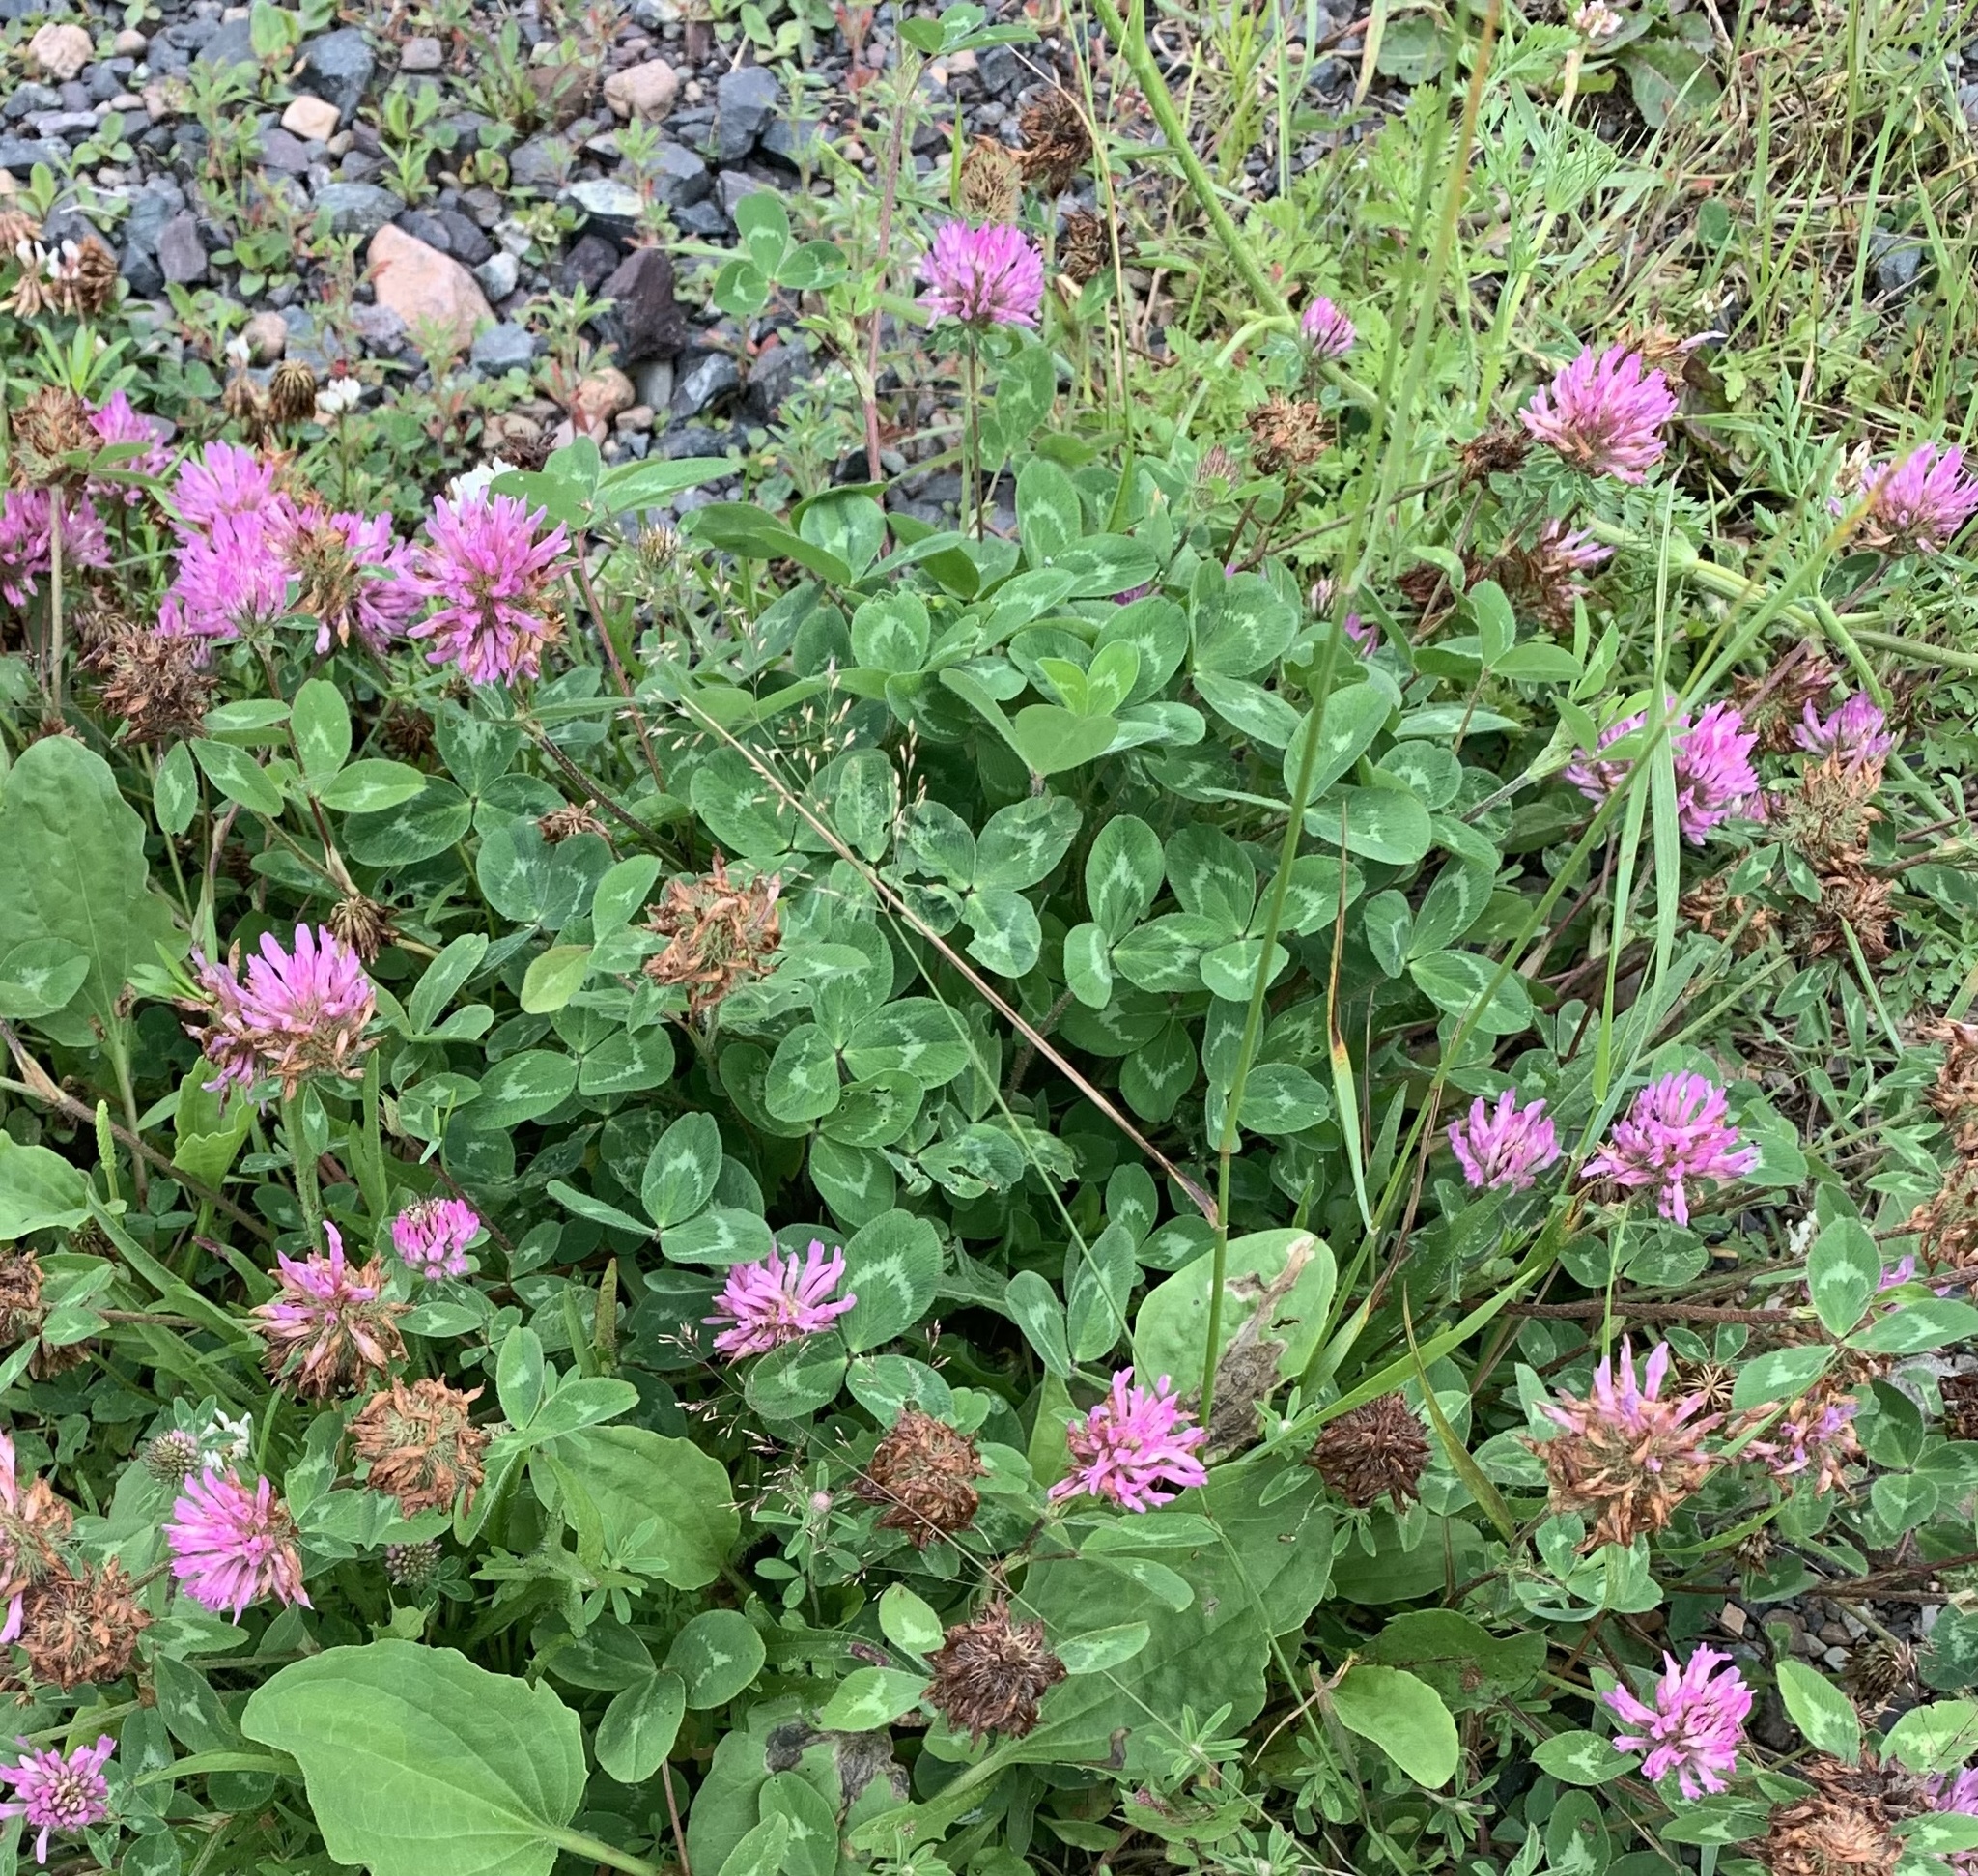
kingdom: Plantae
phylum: Tracheophyta
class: Magnoliopsida
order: Fabales
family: Fabaceae
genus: Trifolium
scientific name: Trifolium pratense
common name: Red clover
